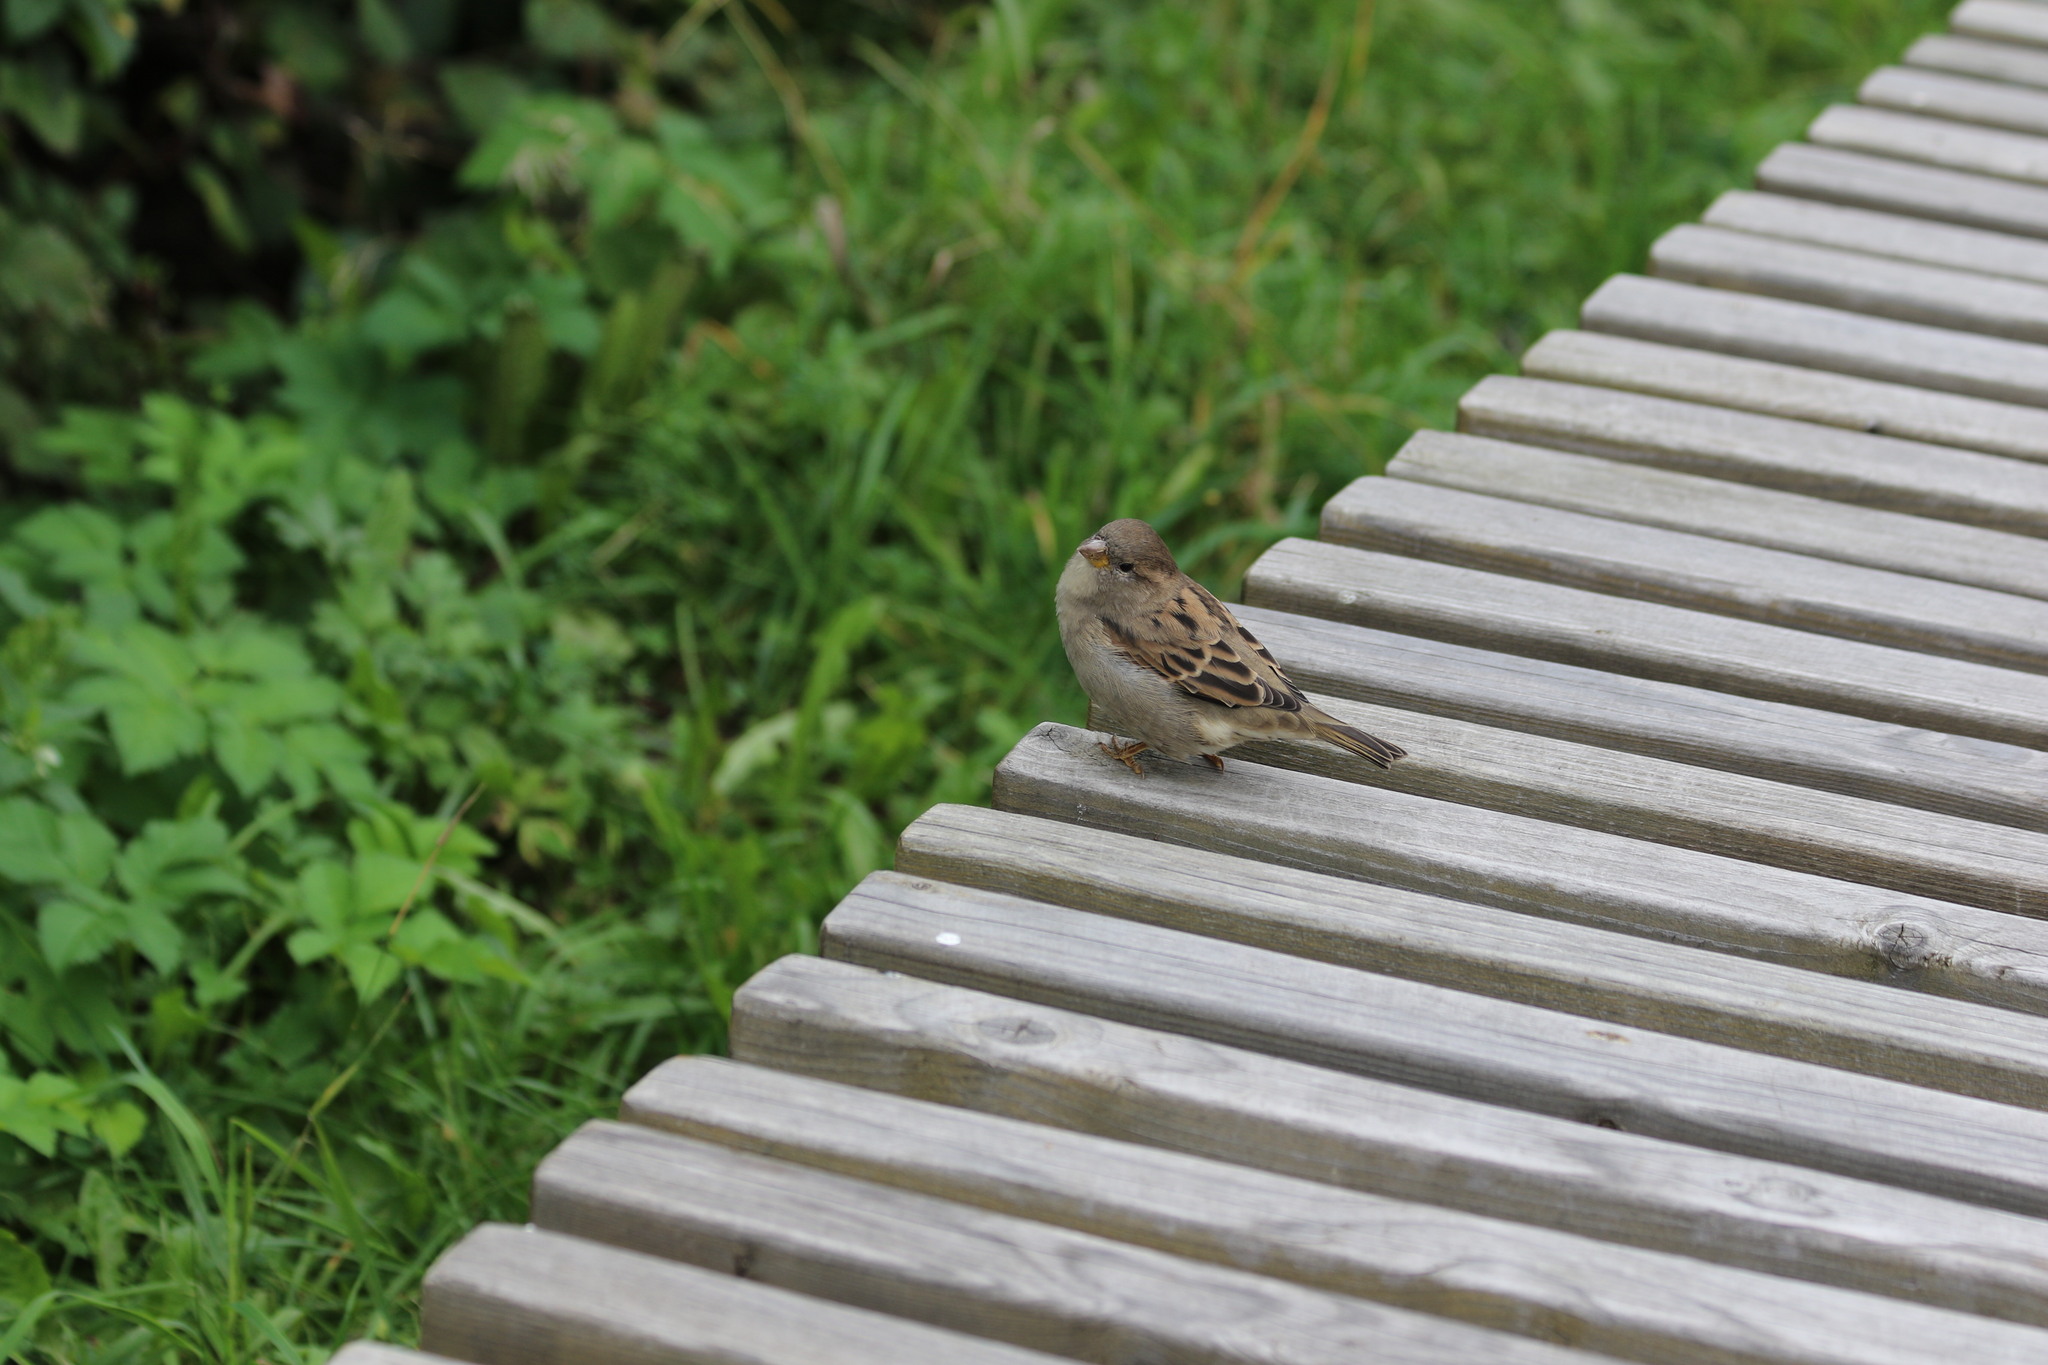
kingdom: Animalia
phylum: Chordata
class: Aves
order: Passeriformes
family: Passeridae
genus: Passer
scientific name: Passer domesticus
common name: House sparrow
